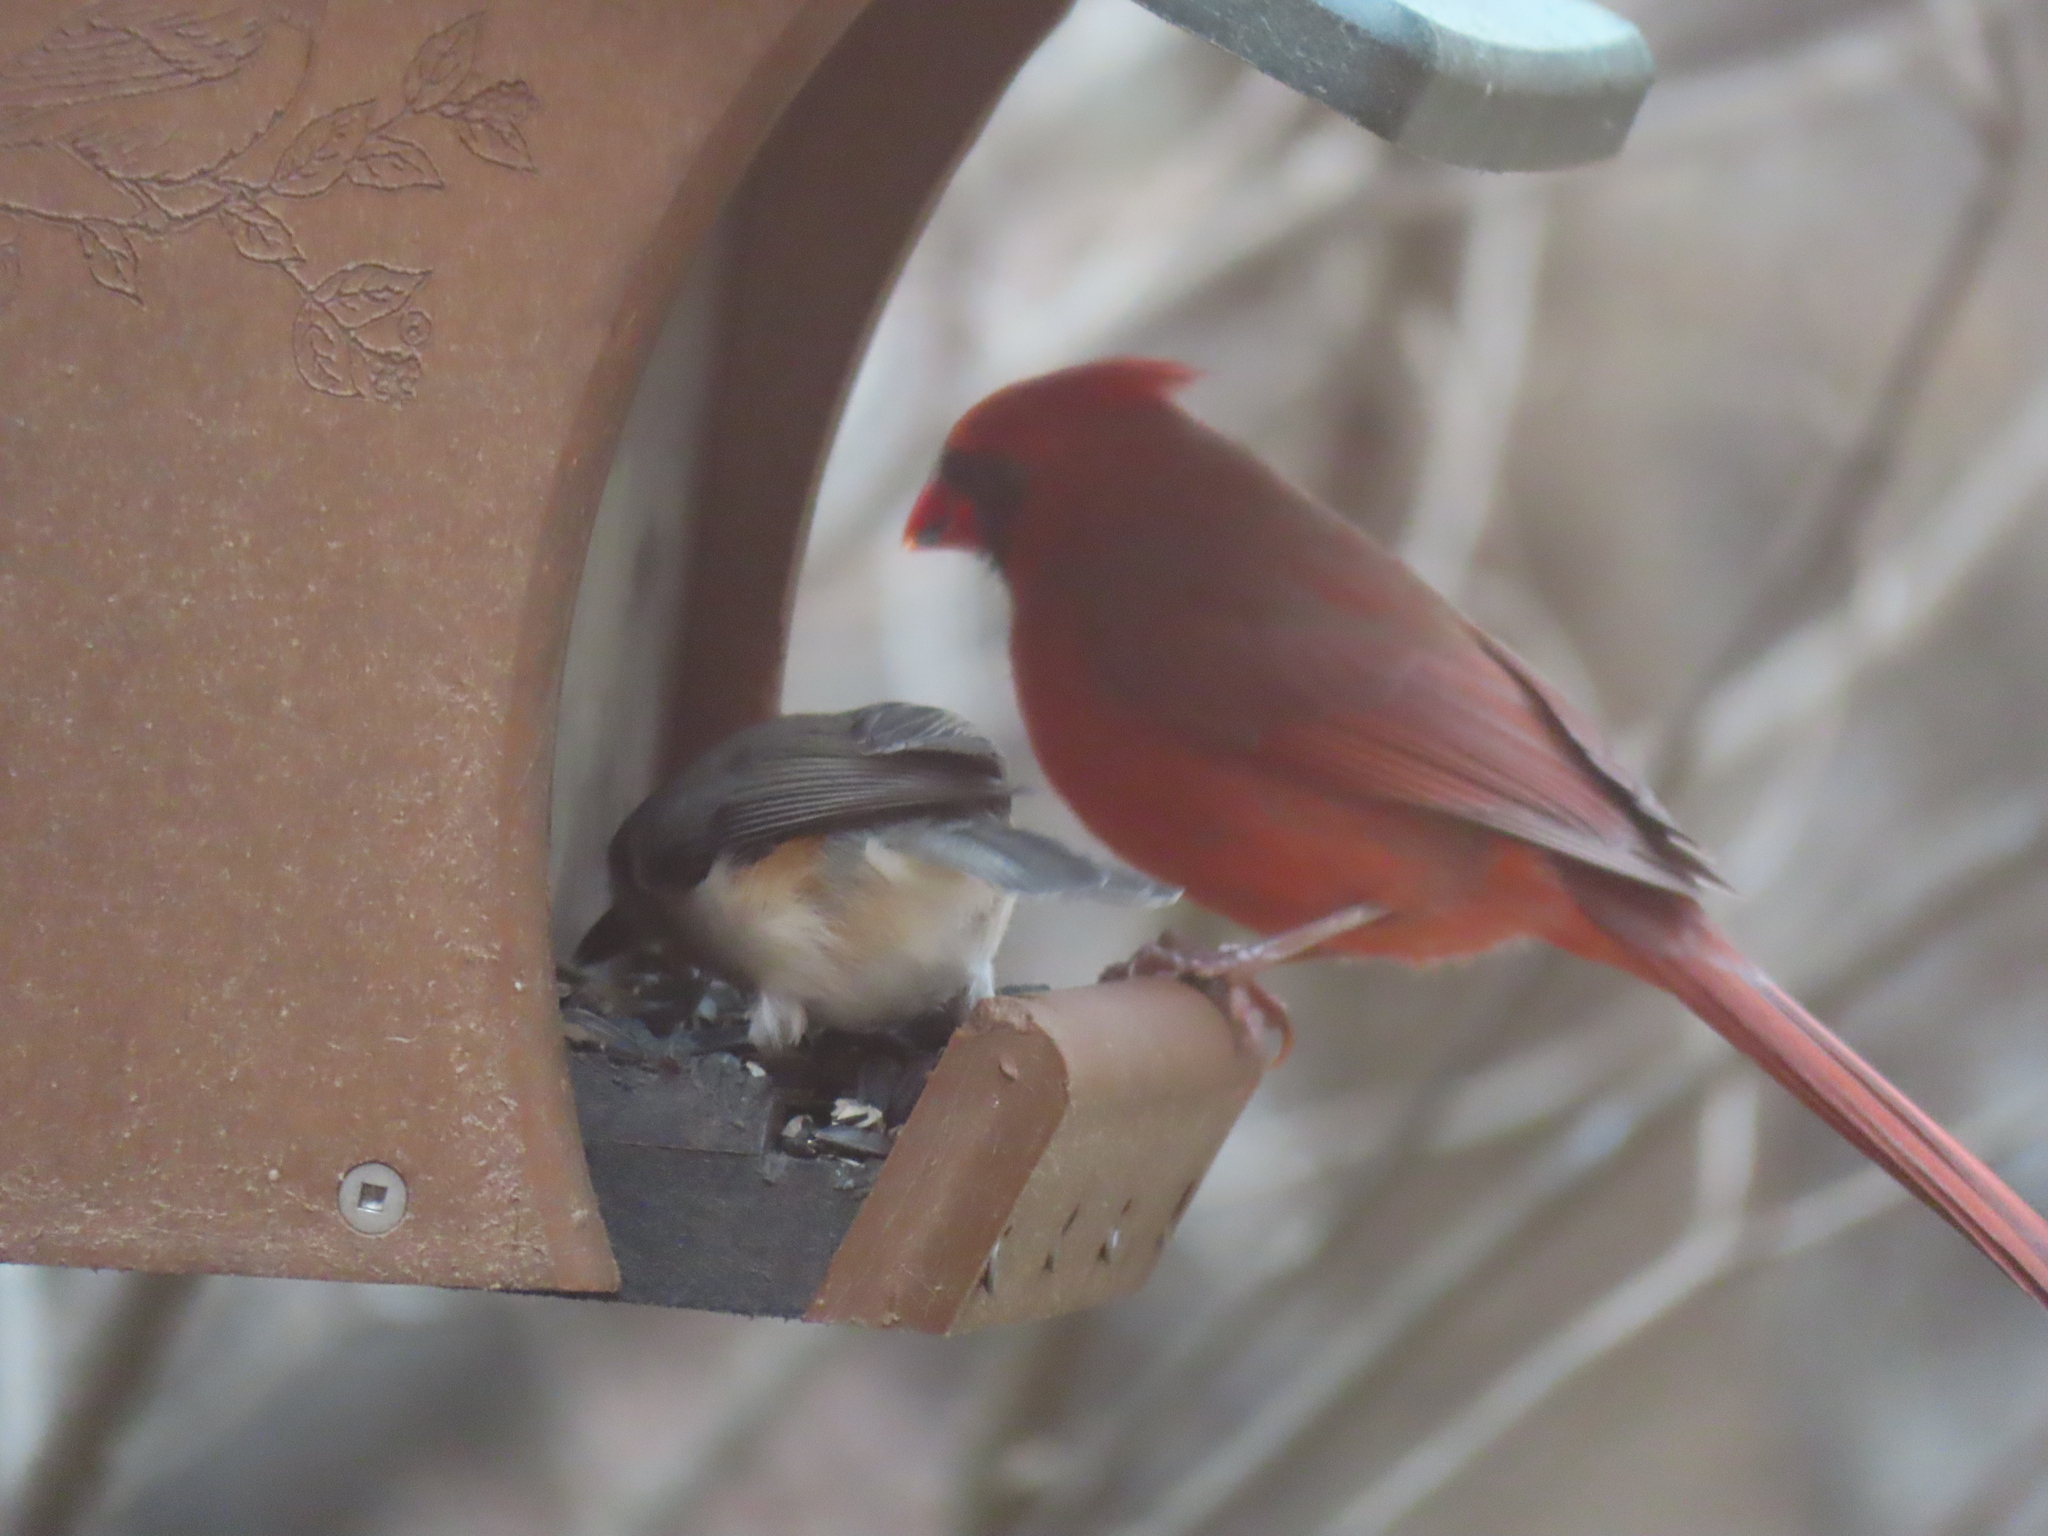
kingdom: Animalia
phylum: Chordata
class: Aves
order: Passeriformes
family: Cardinalidae
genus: Cardinalis
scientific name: Cardinalis cardinalis
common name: Northern cardinal
